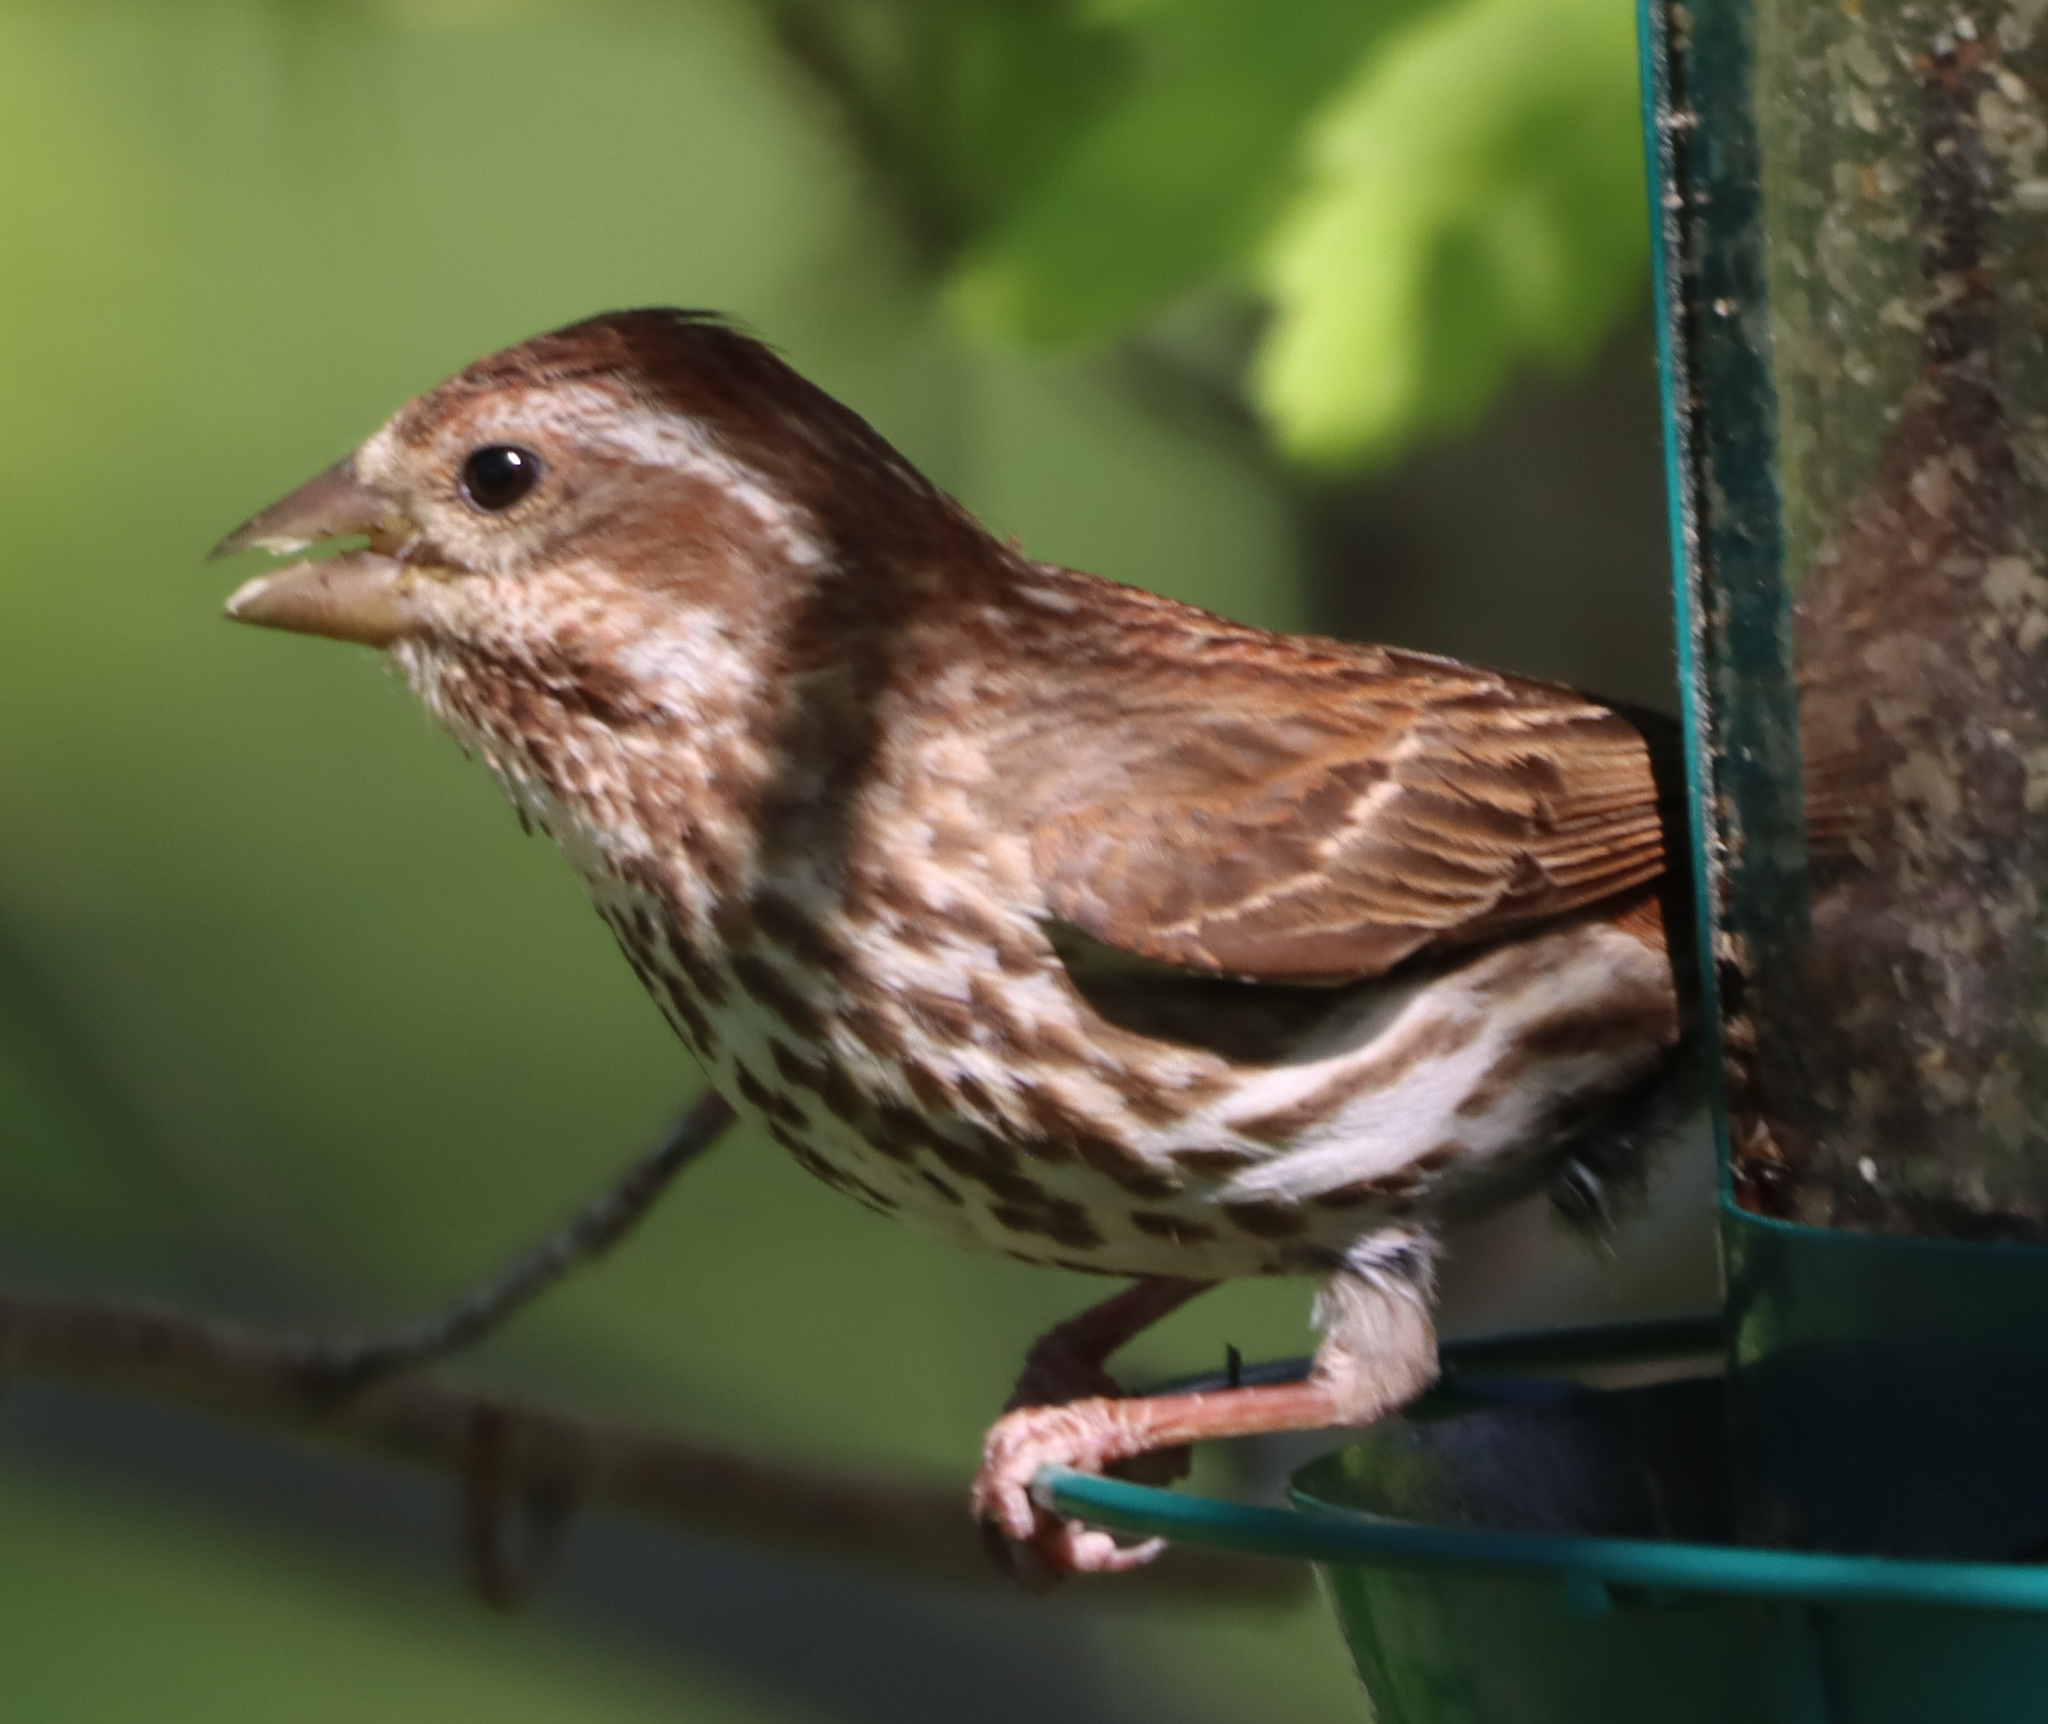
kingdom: Animalia
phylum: Chordata
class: Aves
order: Passeriformes
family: Fringillidae
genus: Haemorhous
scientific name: Haemorhous purpureus
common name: Purple finch
